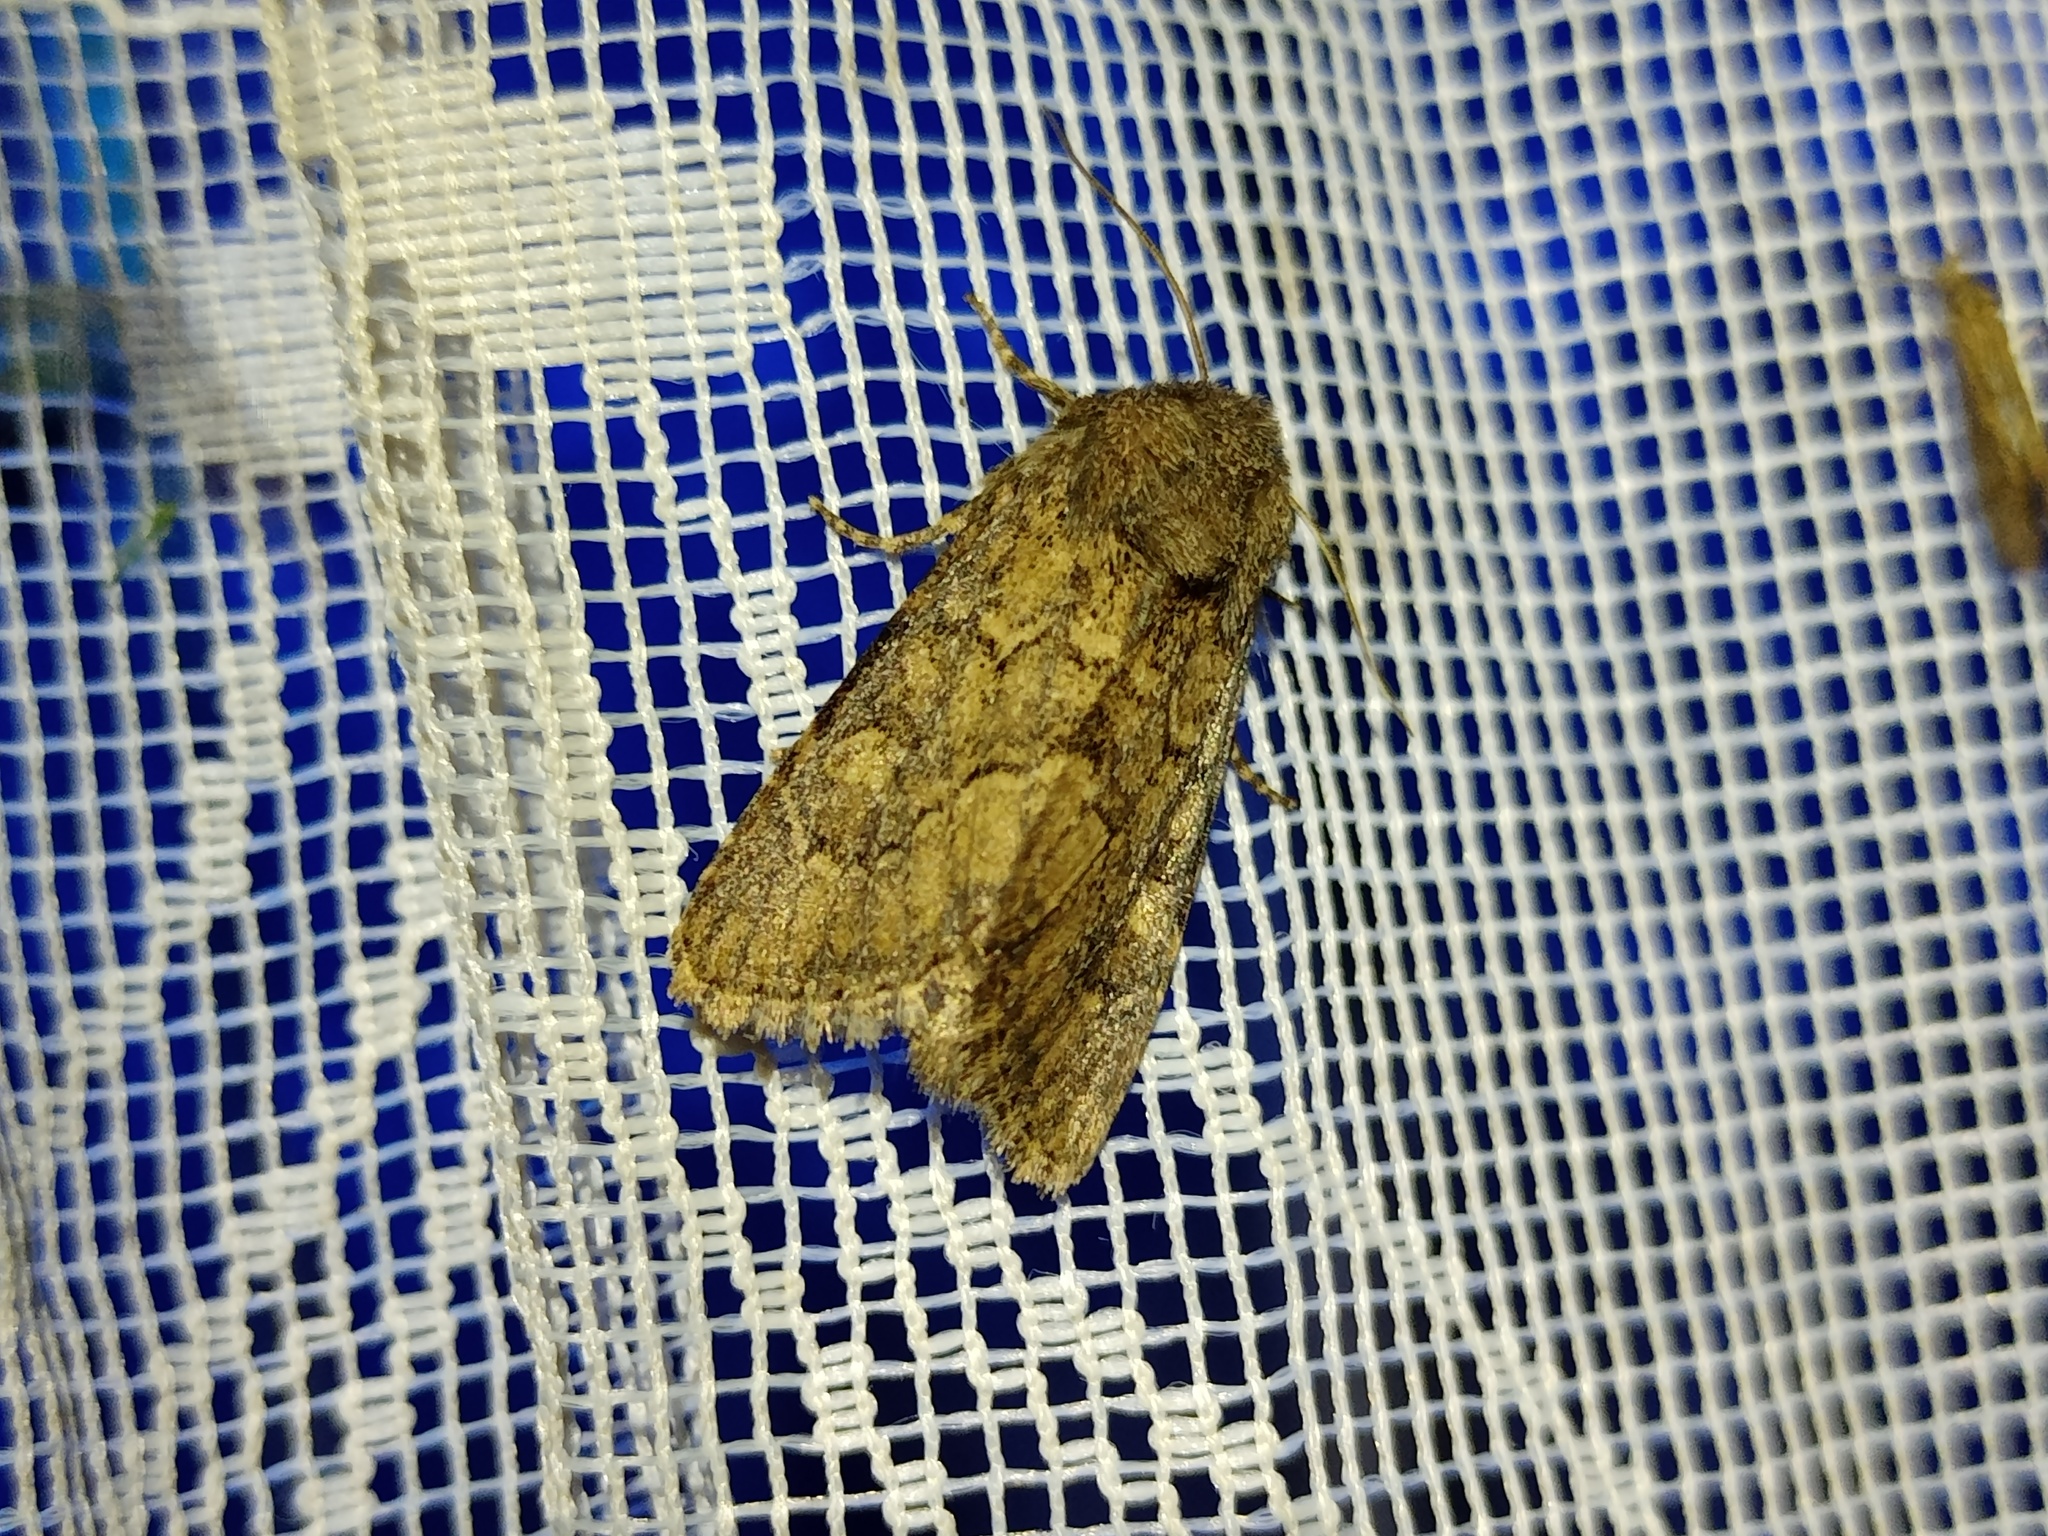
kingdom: Animalia
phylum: Arthropoda
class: Insecta
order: Lepidoptera
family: Noctuidae
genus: Luperina
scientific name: Luperina testacea
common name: Flounced rustic
